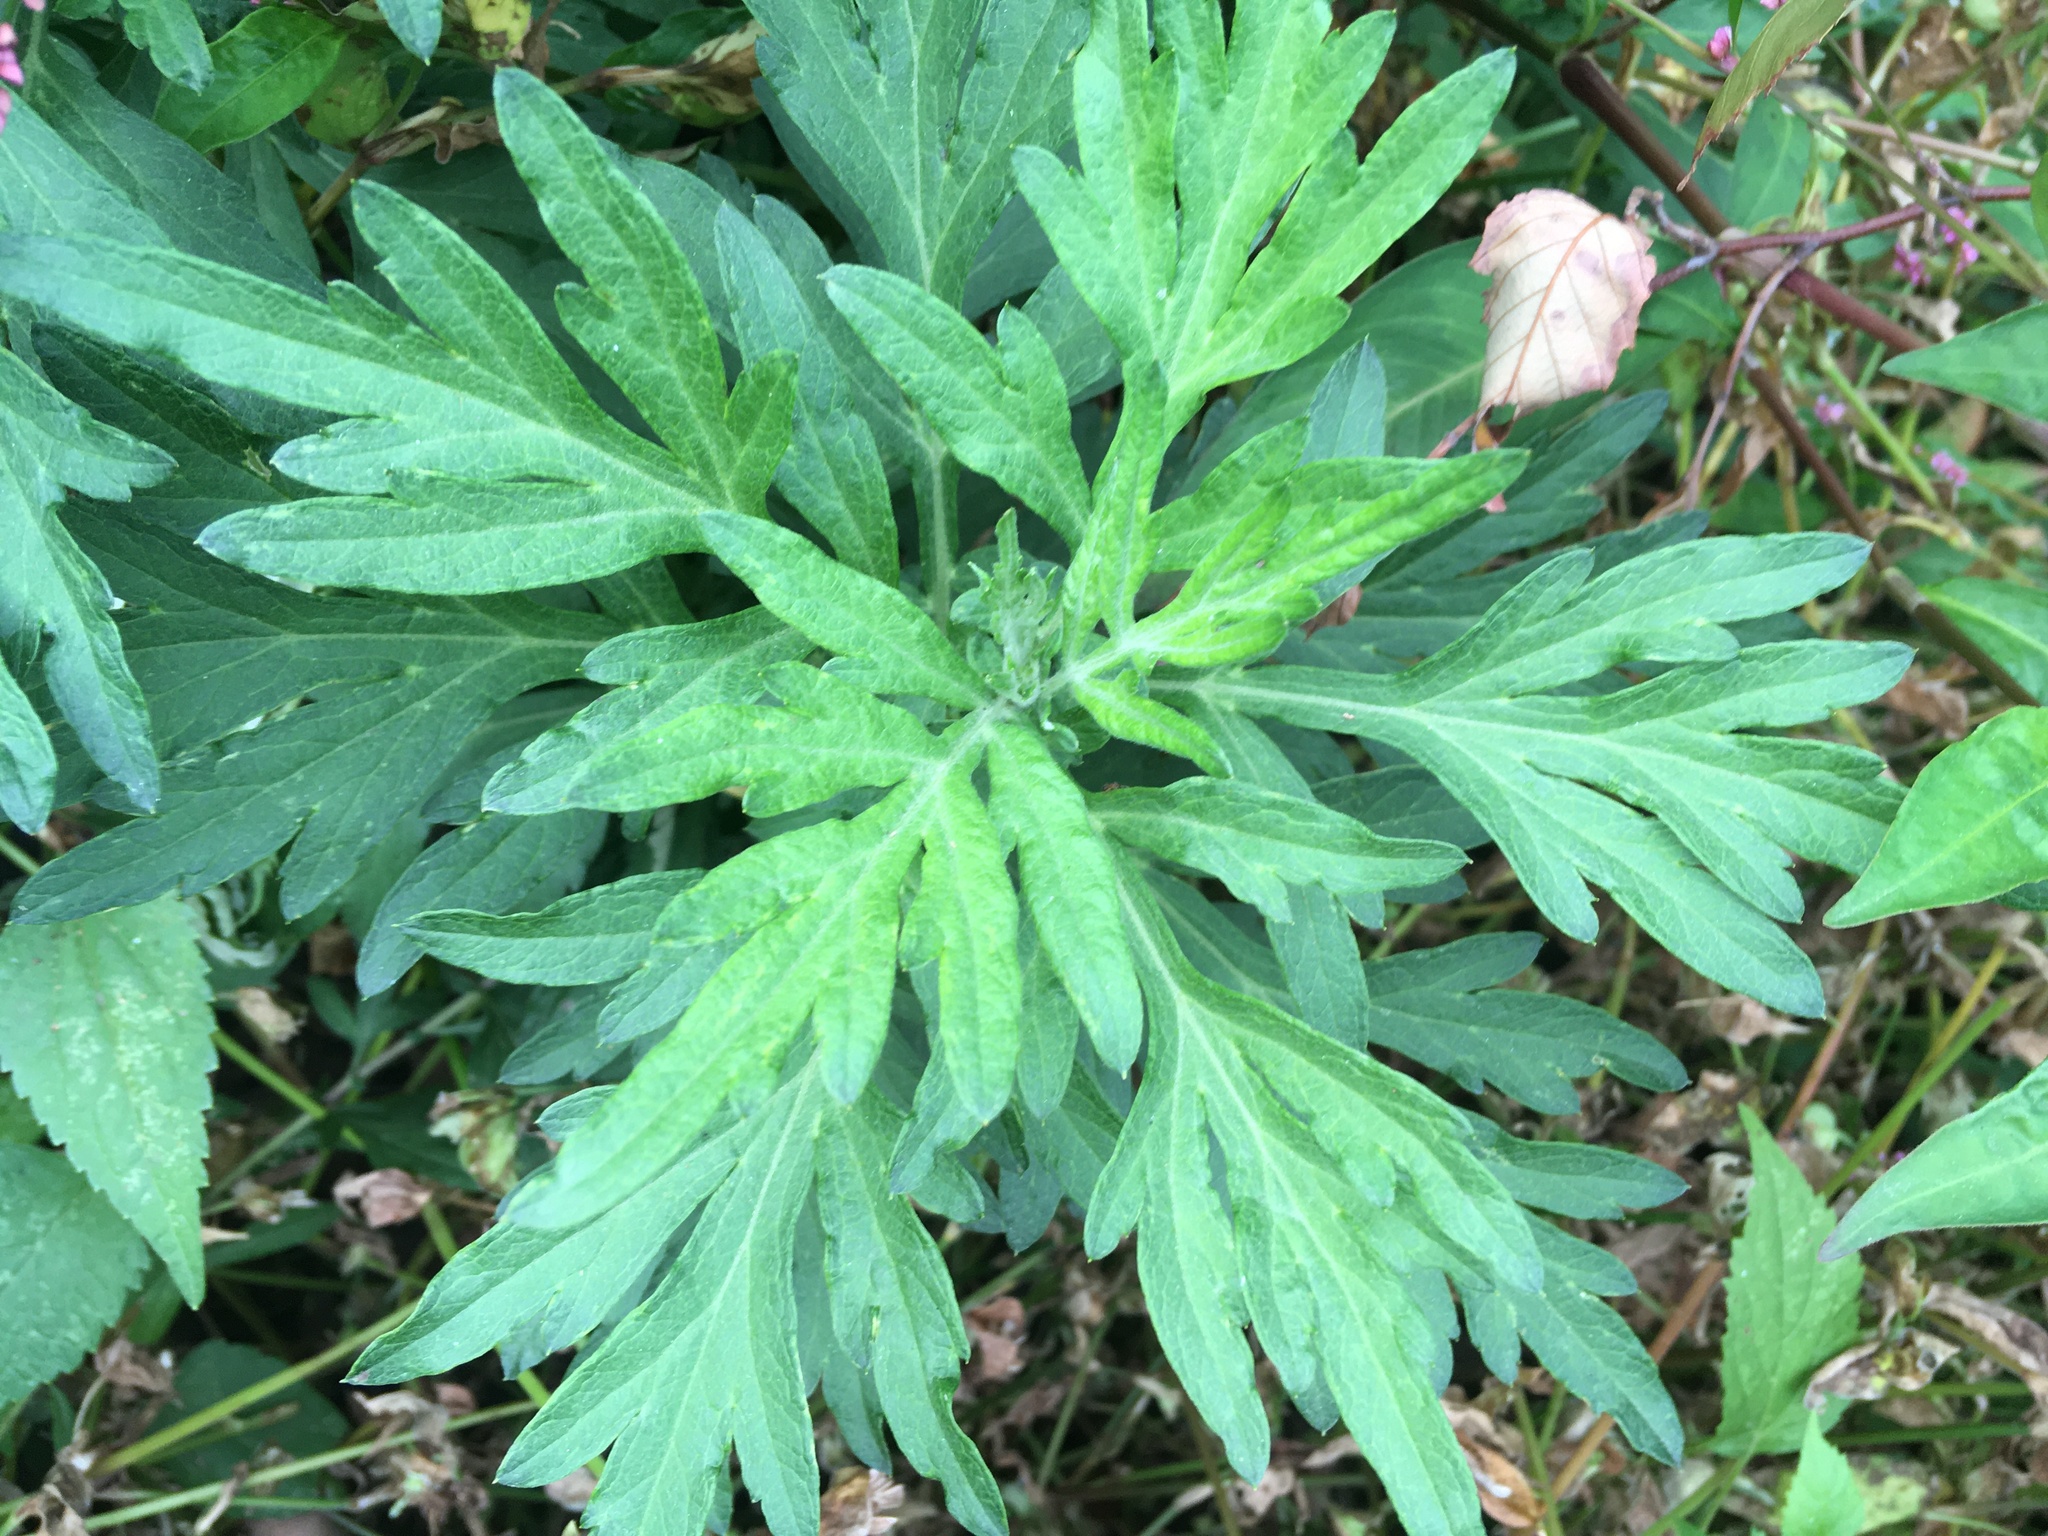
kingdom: Plantae
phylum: Tracheophyta
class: Magnoliopsida
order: Asterales
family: Asteraceae
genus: Artemisia
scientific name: Artemisia vulgaris
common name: Mugwort
